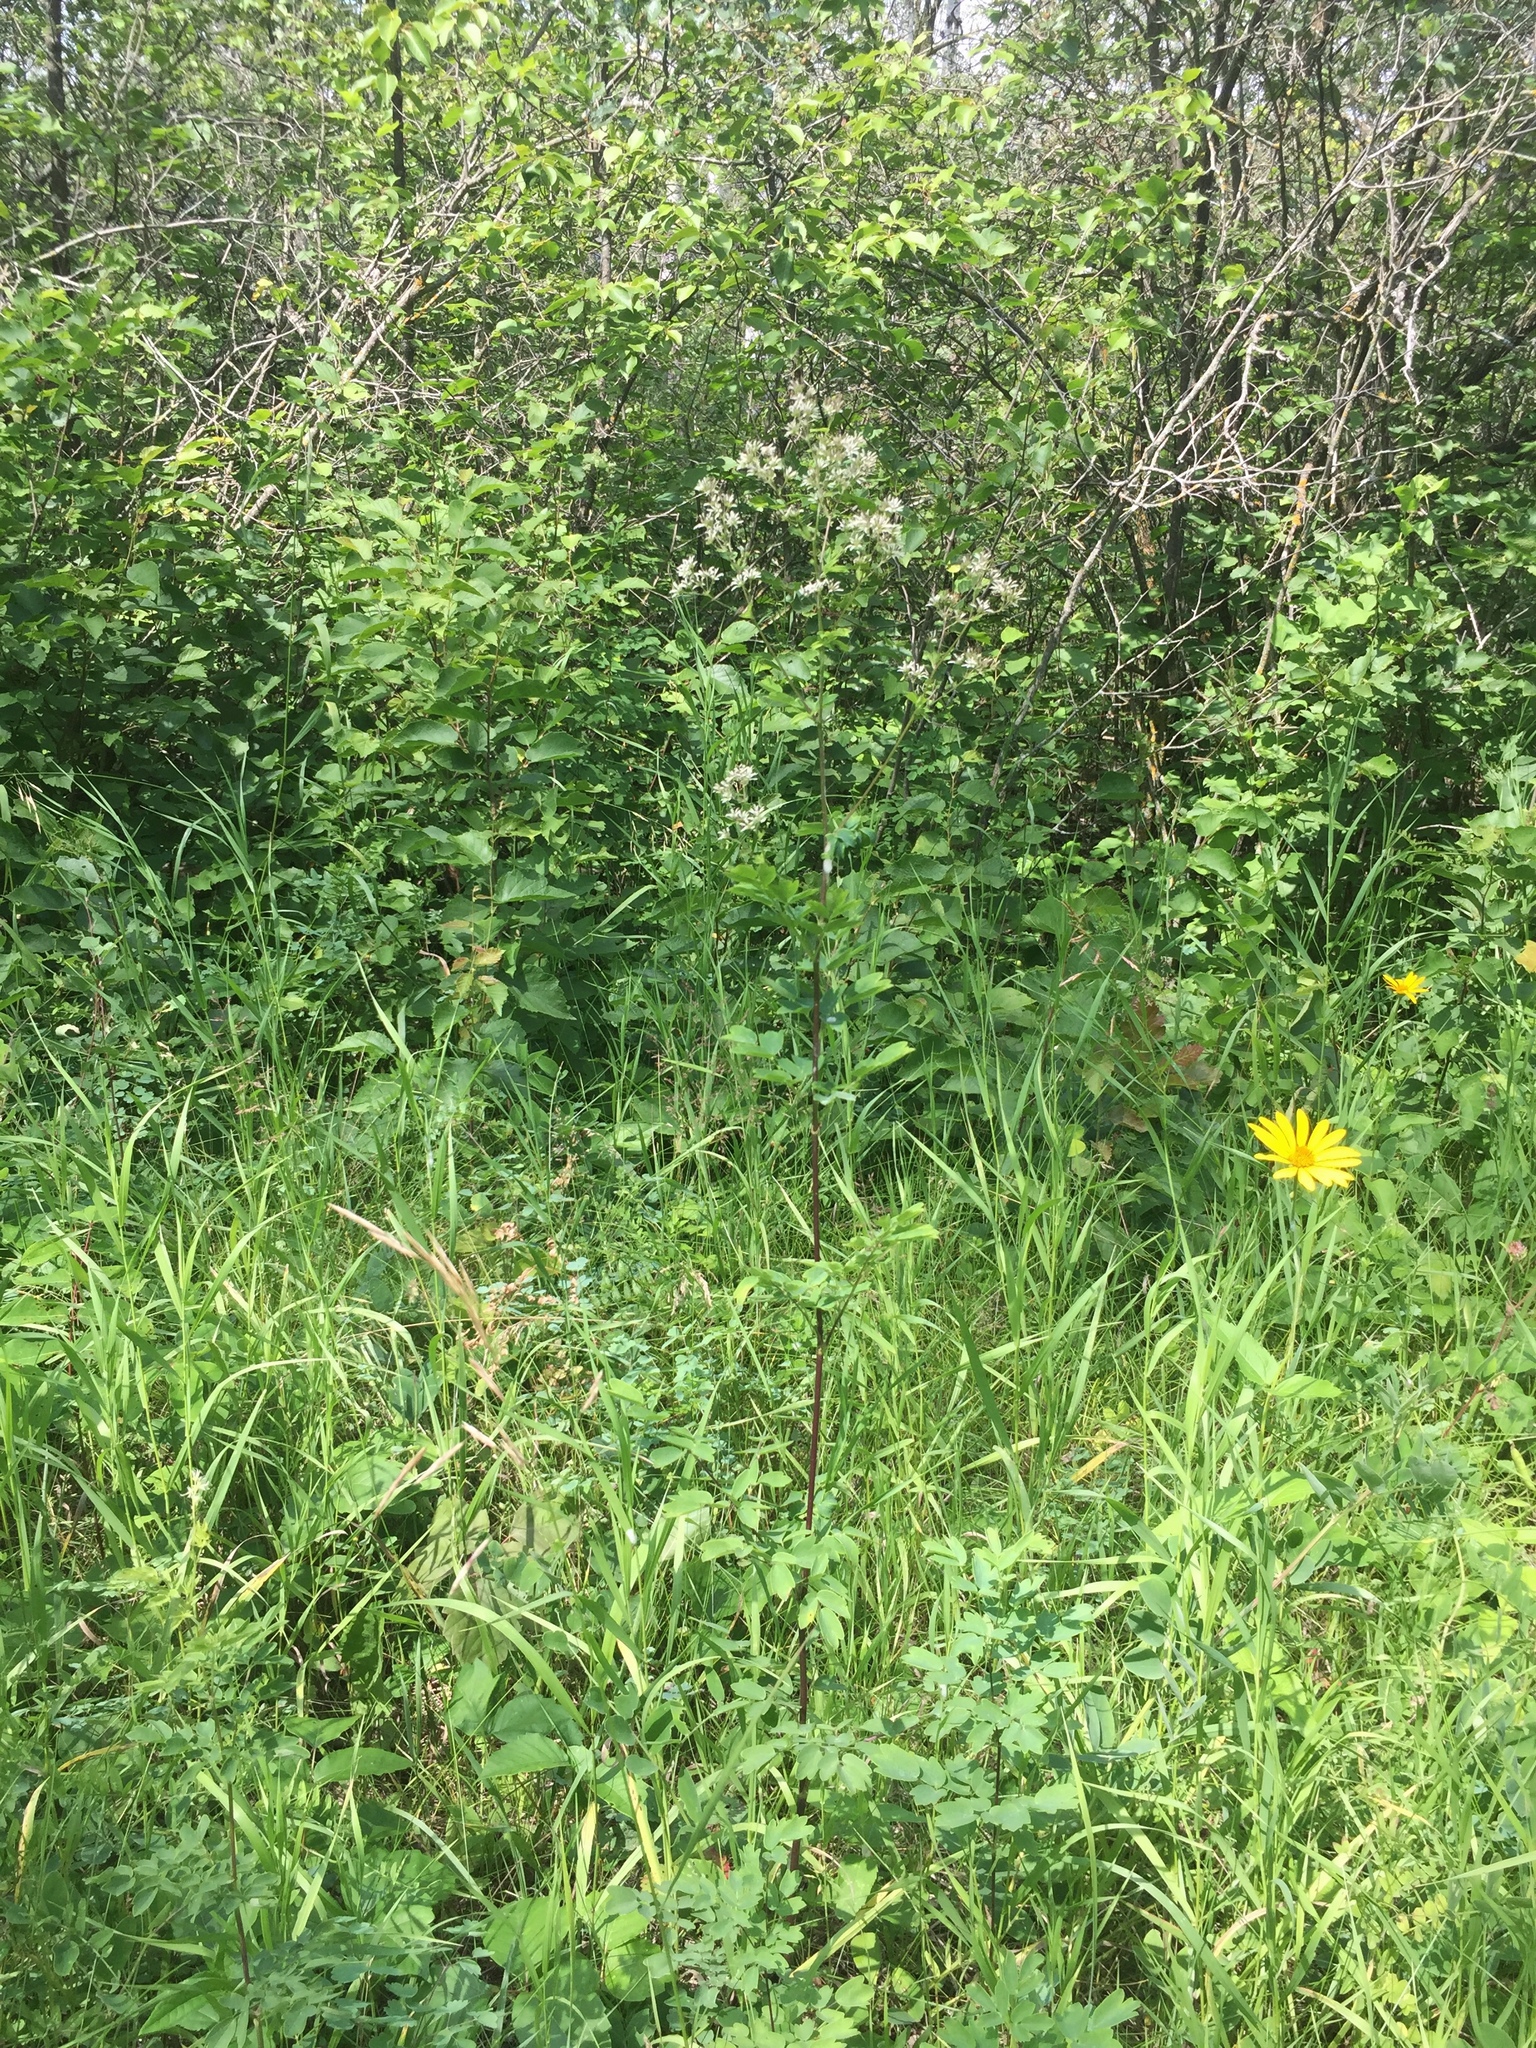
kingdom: Plantae
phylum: Tracheophyta
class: Magnoliopsida
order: Ranunculales
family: Ranunculaceae
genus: Thalictrum
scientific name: Thalictrum dasycarpum
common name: Purple meadow-rue
